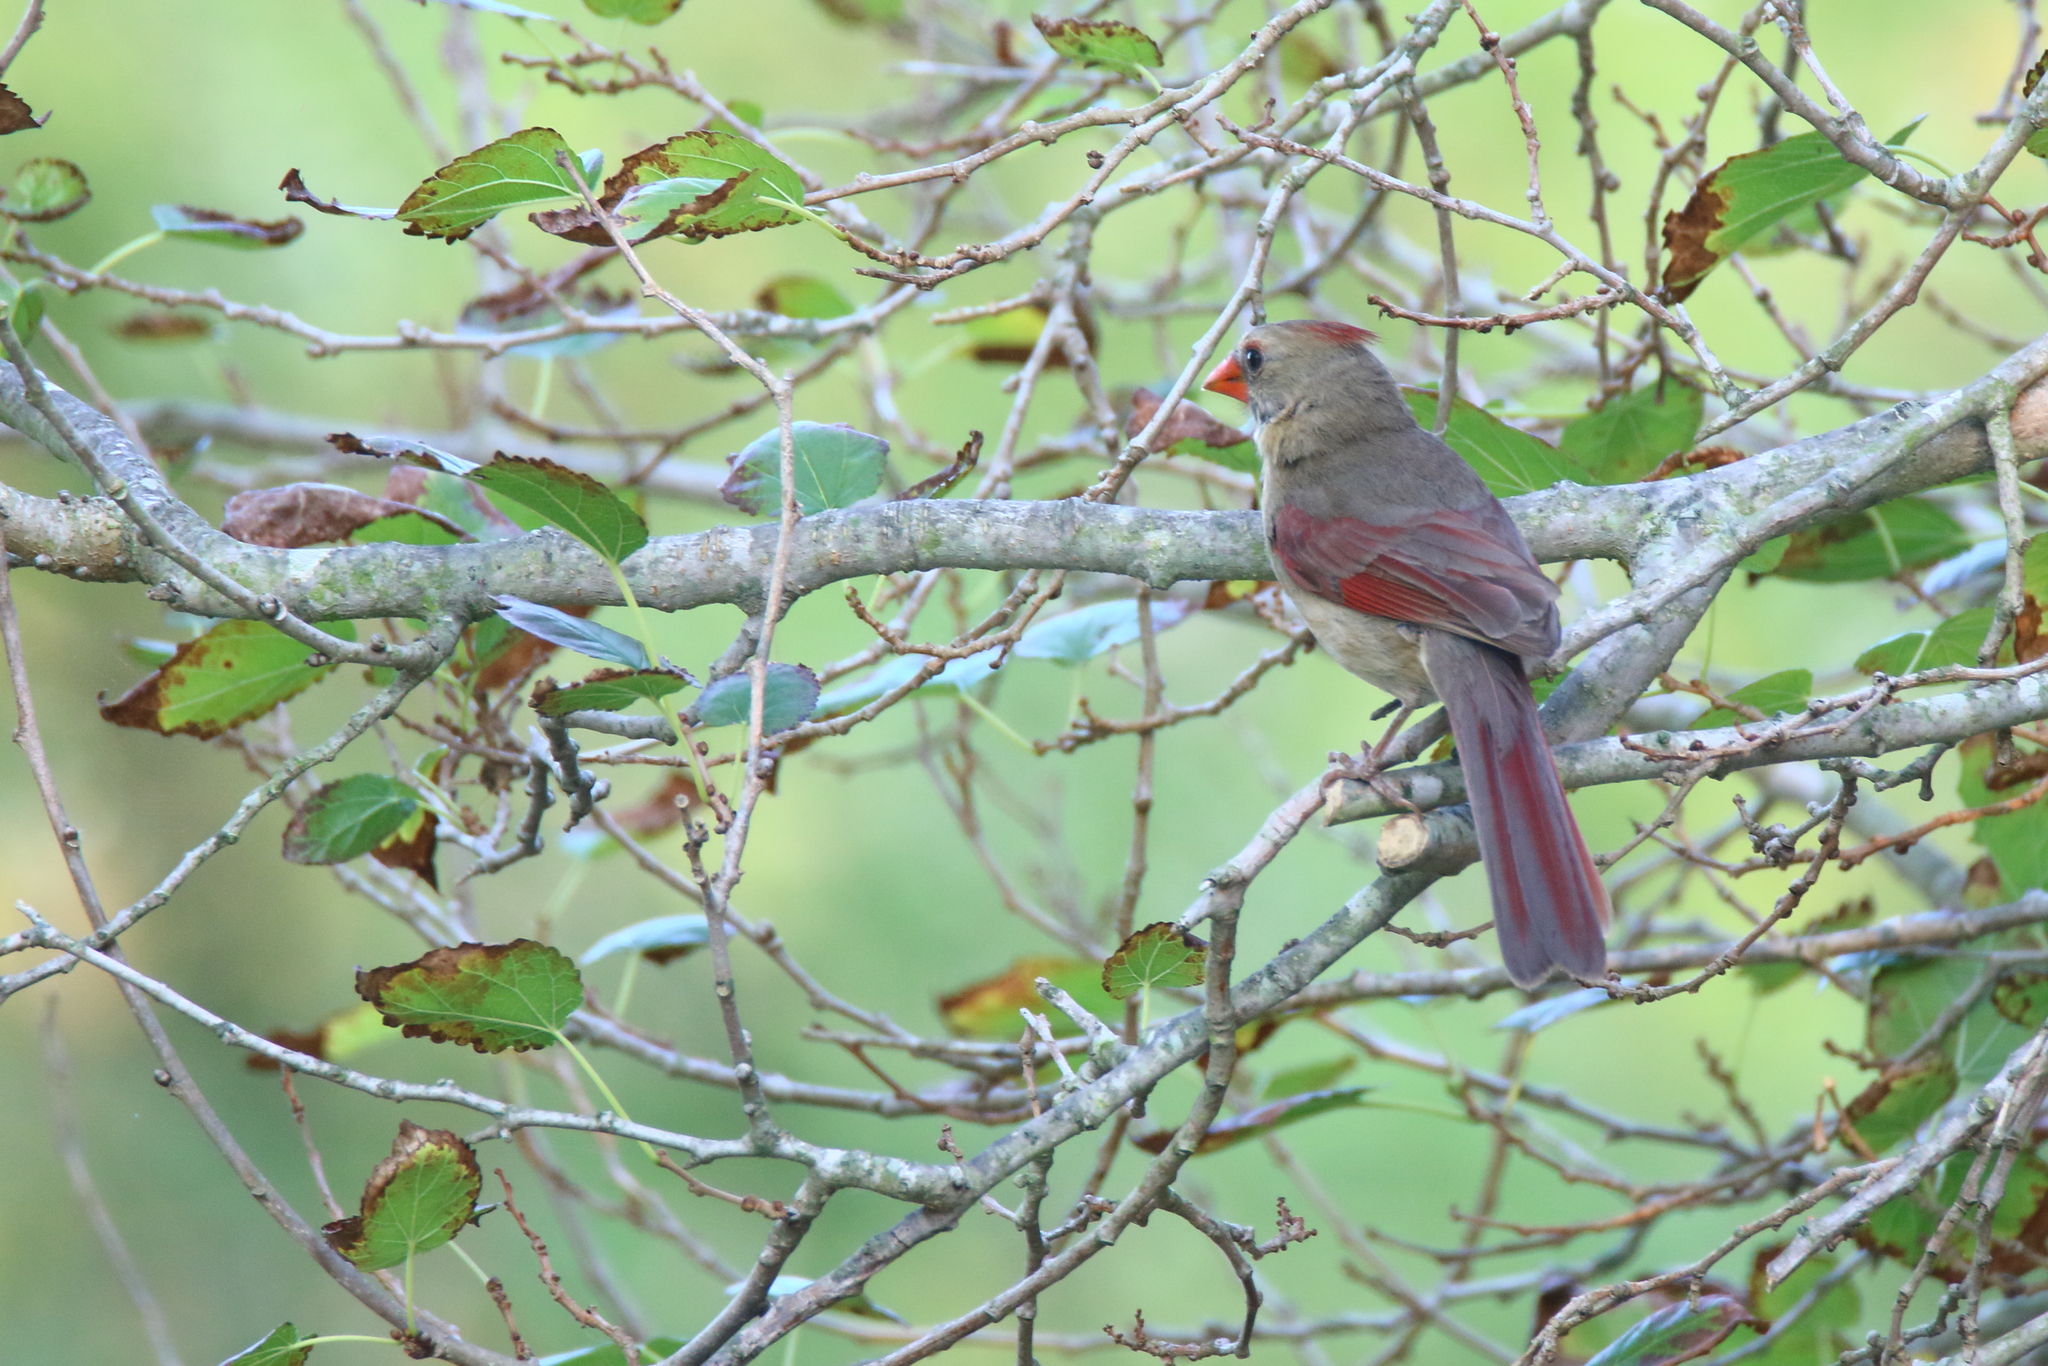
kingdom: Animalia
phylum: Chordata
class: Aves
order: Passeriformes
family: Cardinalidae
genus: Cardinalis
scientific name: Cardinalis cardinalis
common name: Northern cardinal
